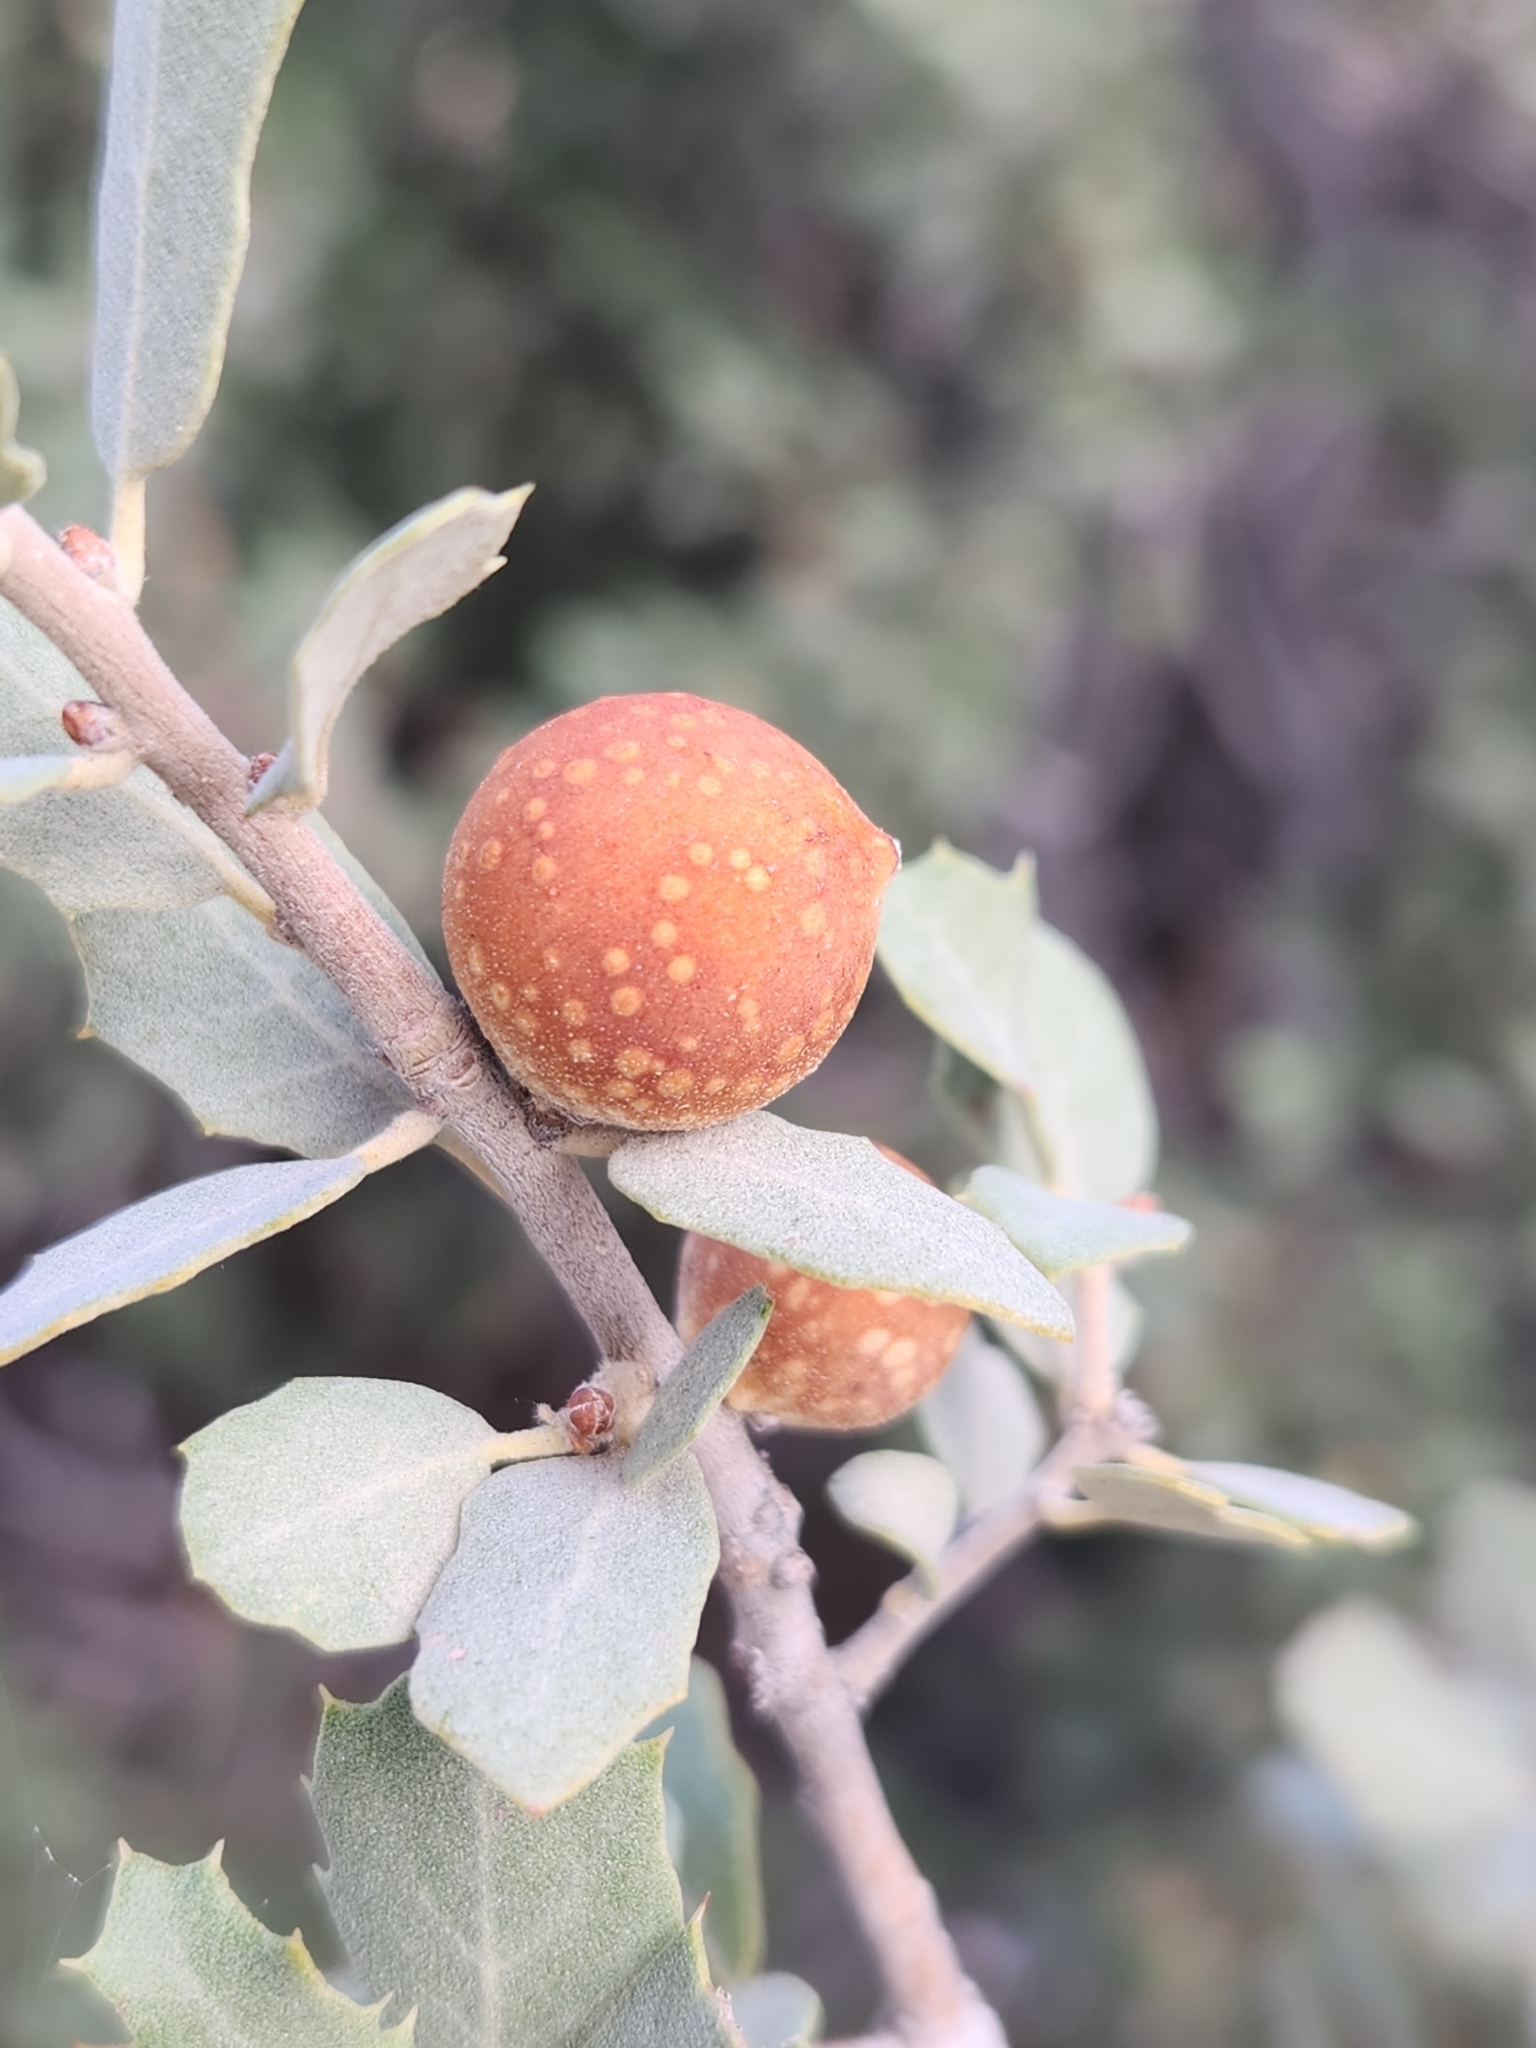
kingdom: Animalia
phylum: Arthropoda
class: Insecta
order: Hymenoptera
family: Cynipidae
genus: Burnettweldia
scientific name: Burnettweldia
